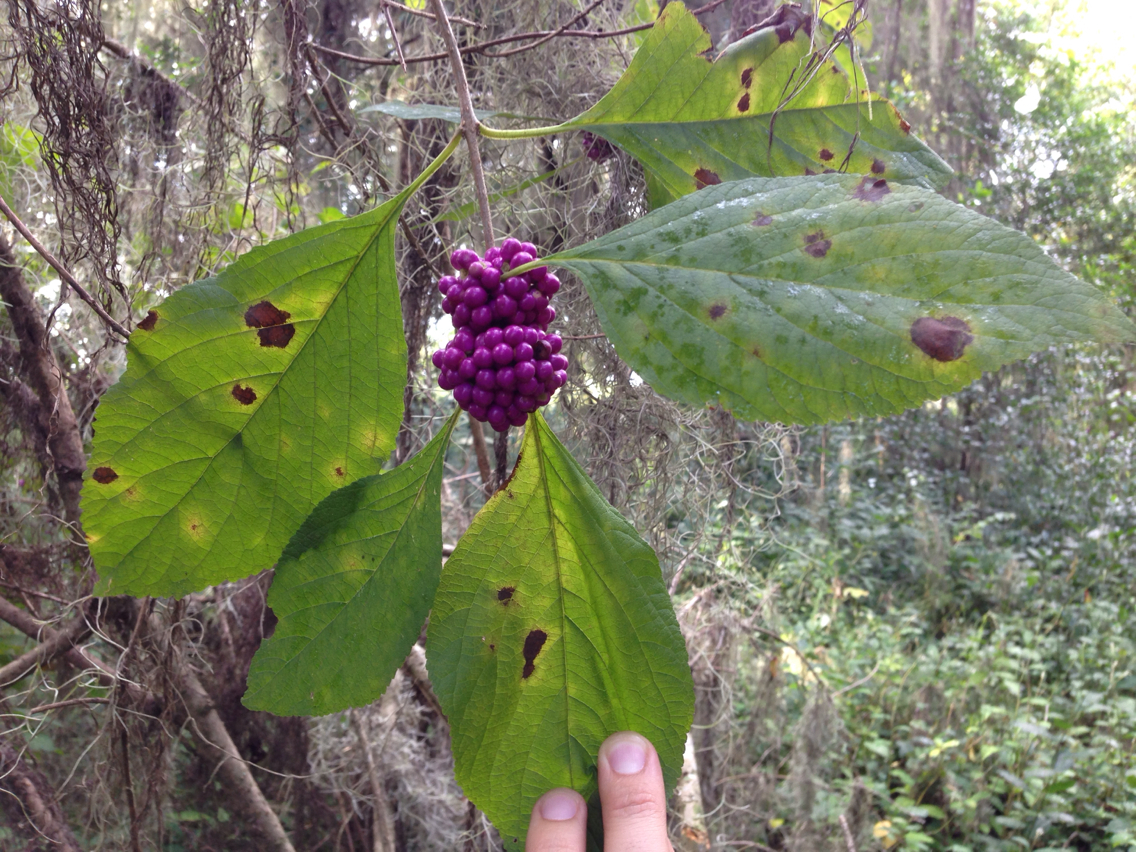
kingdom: Plantae
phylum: Tracheophyta
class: Magnoliopsida
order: Lamiales
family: Lamiaceae
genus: Callicarpa
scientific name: Callicarpa americana
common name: American beautyberry
